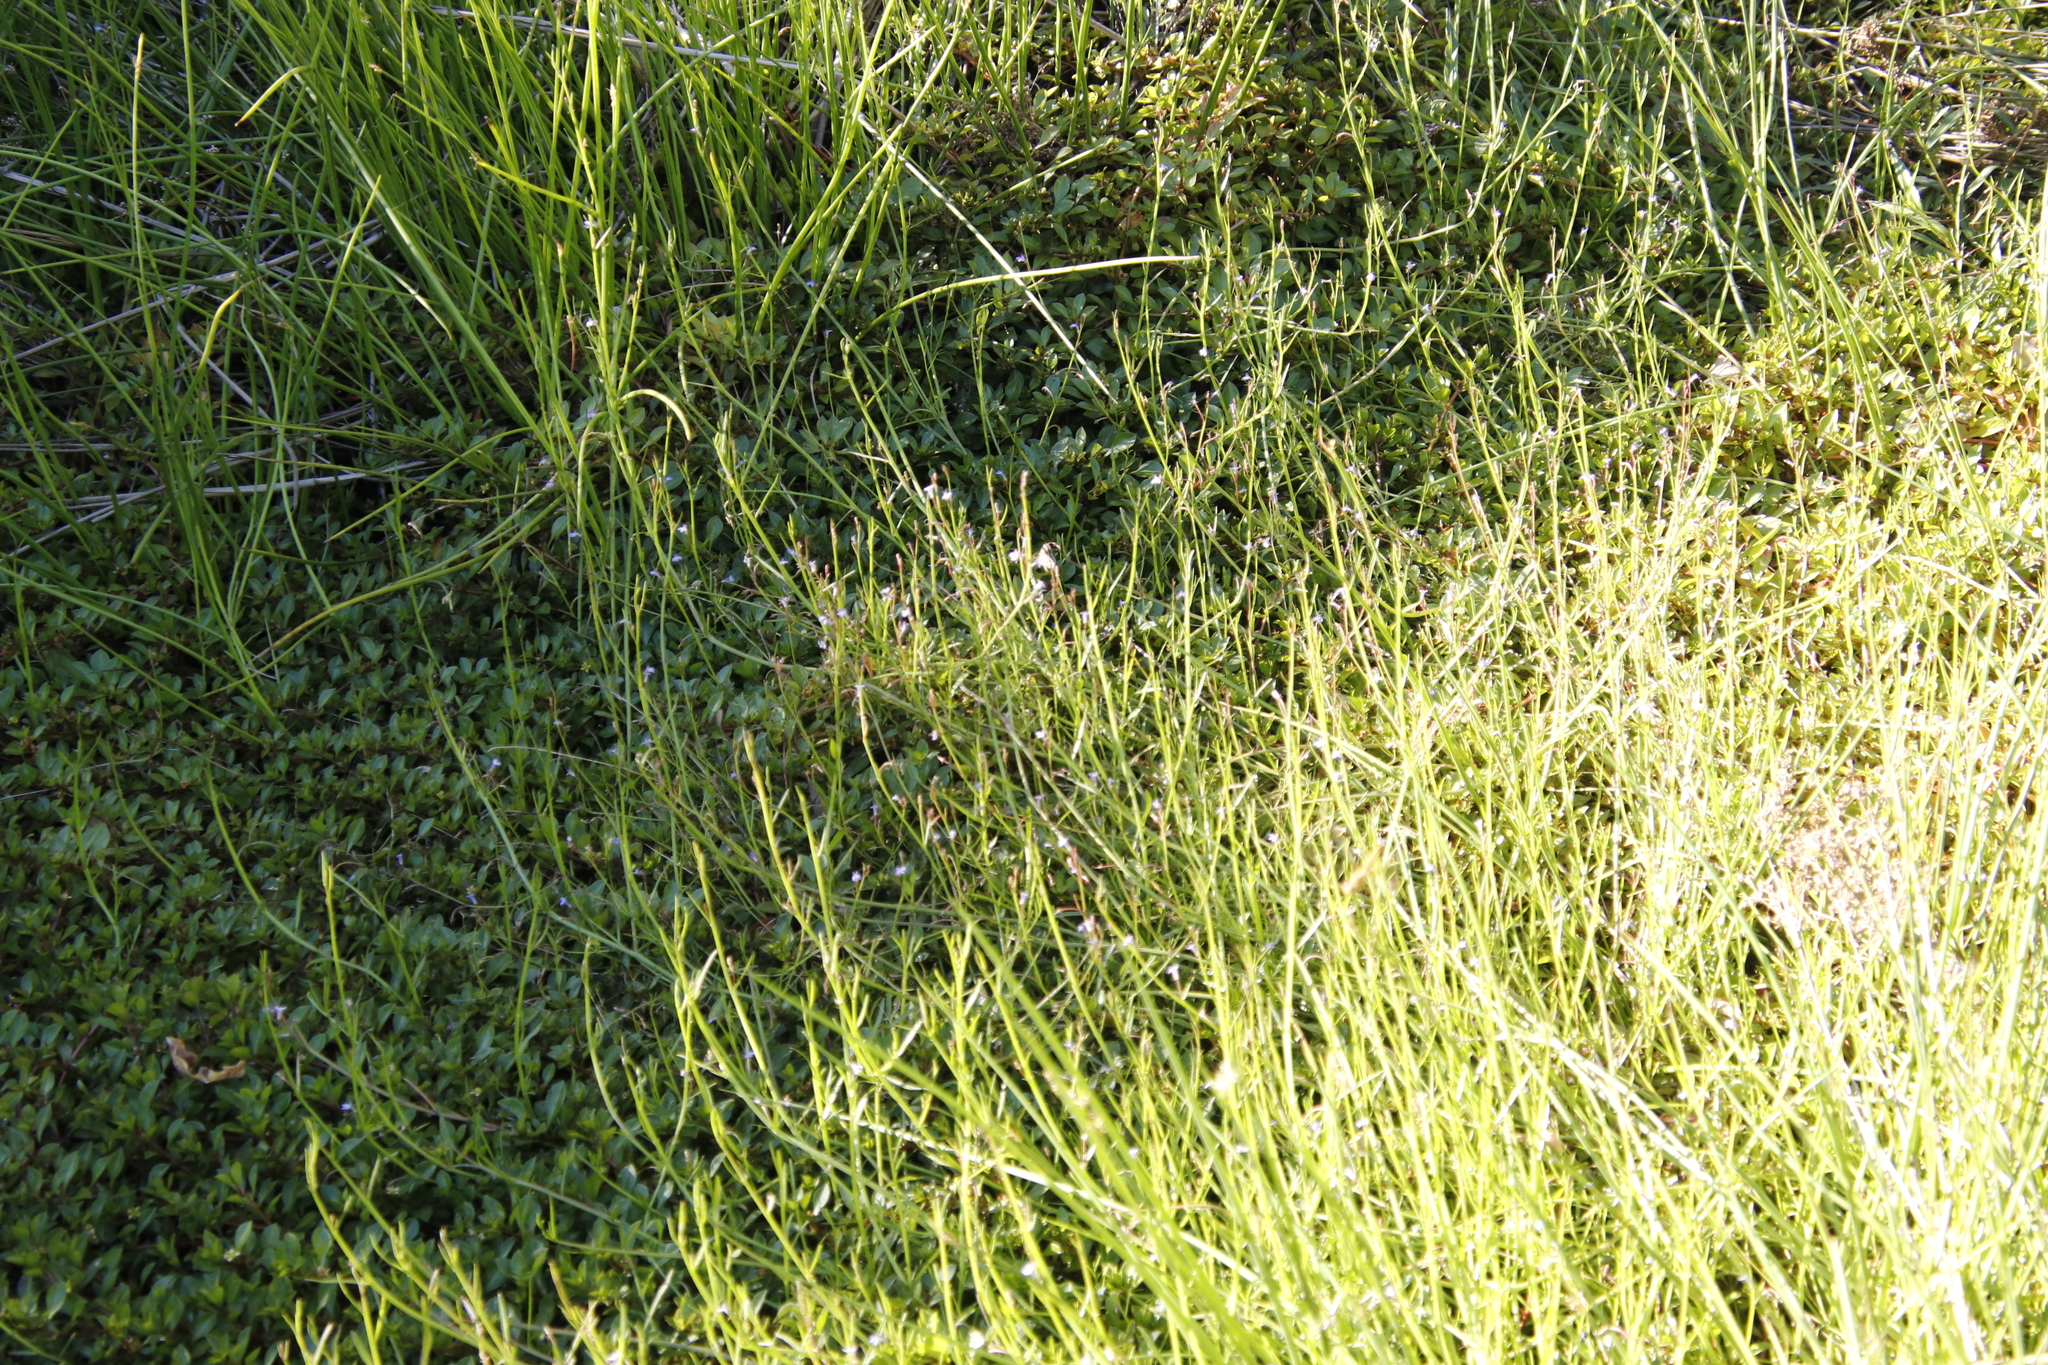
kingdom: Plantae
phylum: Tracheophyta
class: Magnoliopsida
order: Asterales
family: Campanulaceae
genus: Grammatotheca
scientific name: Grammatotheca bergiana
